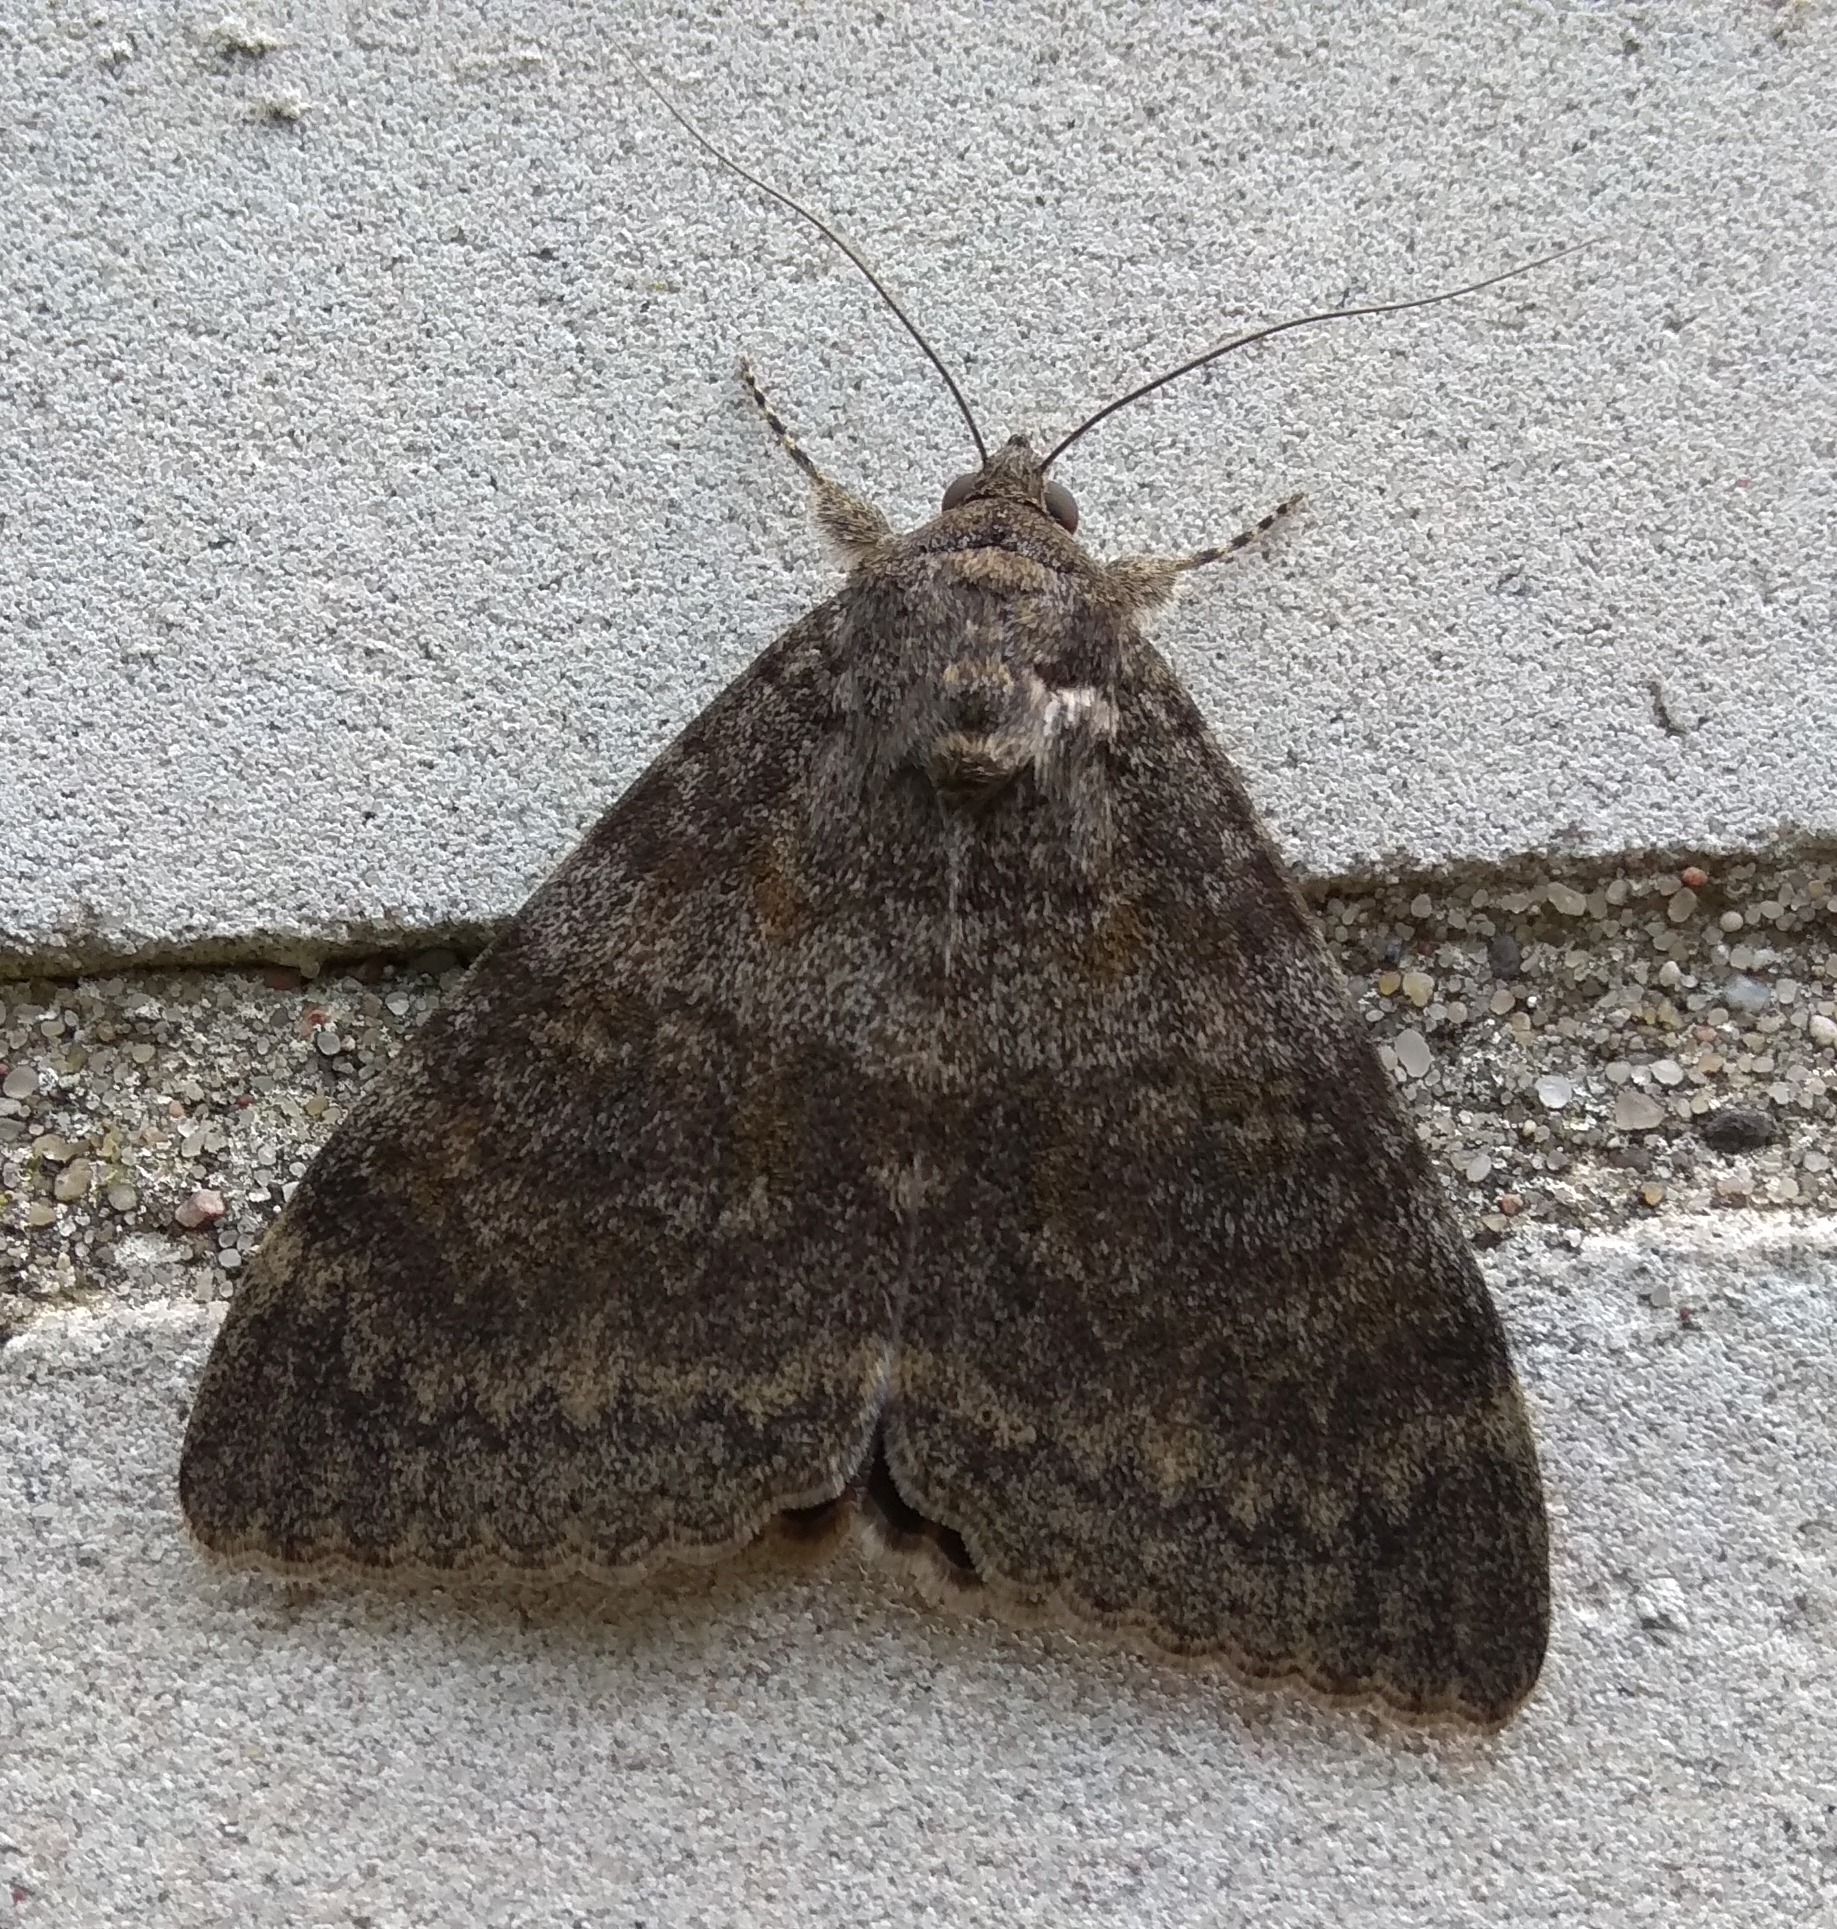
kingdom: Animalia
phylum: Arthropoda
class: Insecta
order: Lepidoptera
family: Erebidae
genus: Catocala
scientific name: Catocala elocata
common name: French red underwing
